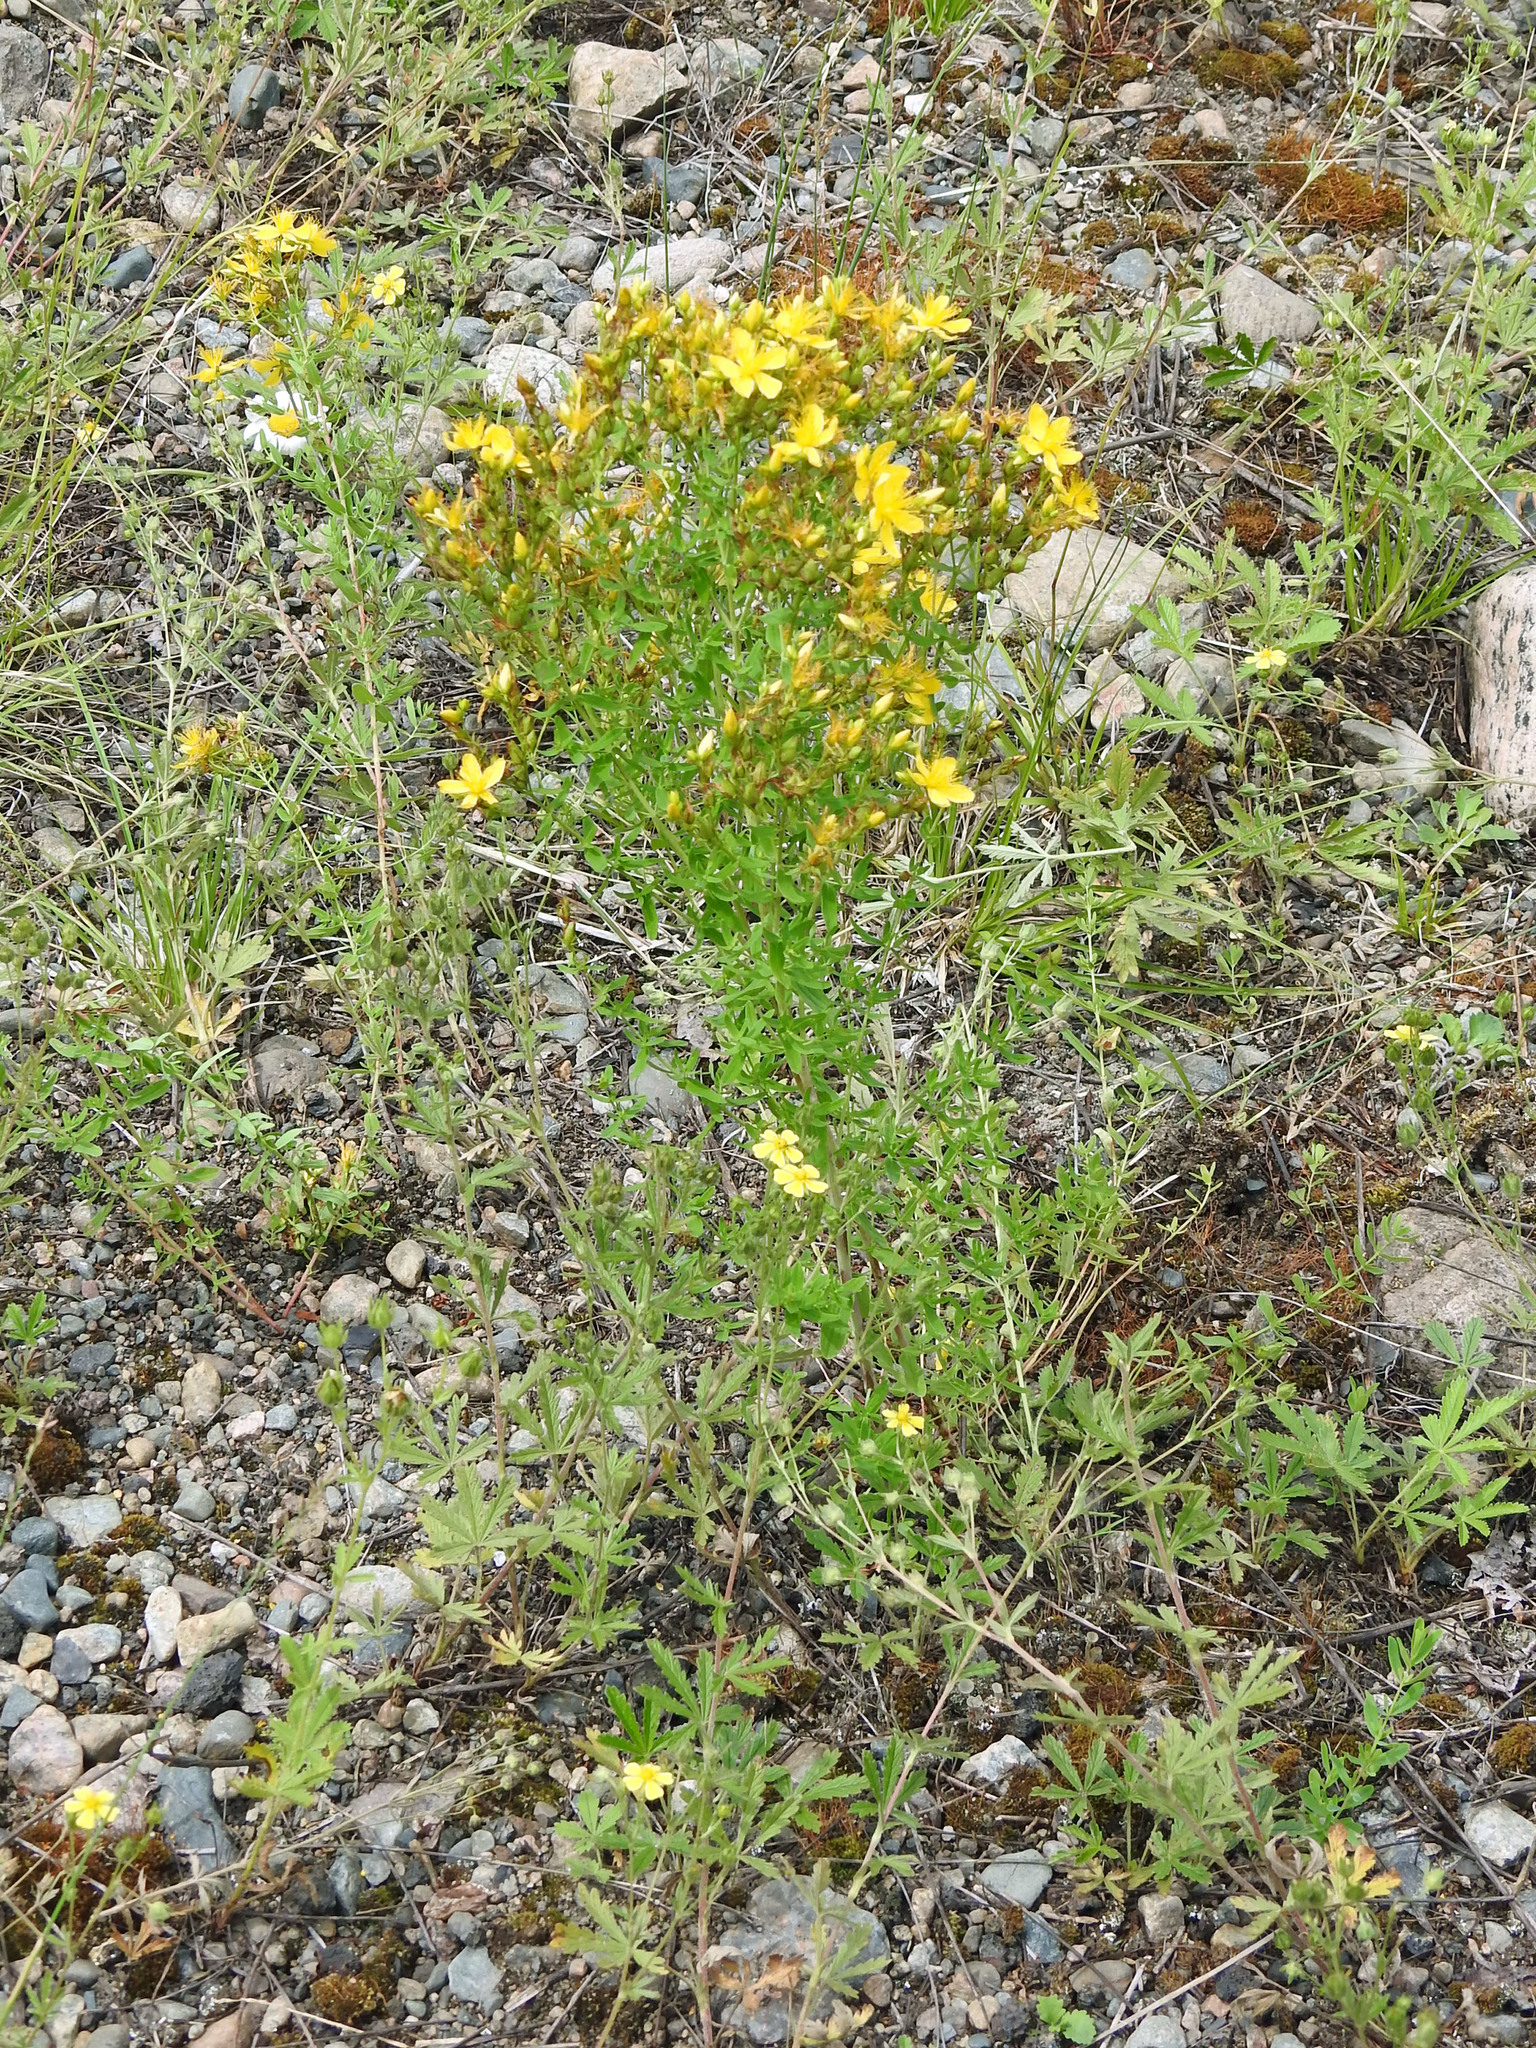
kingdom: Plantae
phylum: Tracheophyta
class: Magnoliopsida
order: Malpighiales
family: Hypericaceae
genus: Hypericum
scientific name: Hypericum perforatum
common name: Common st. johnswort
